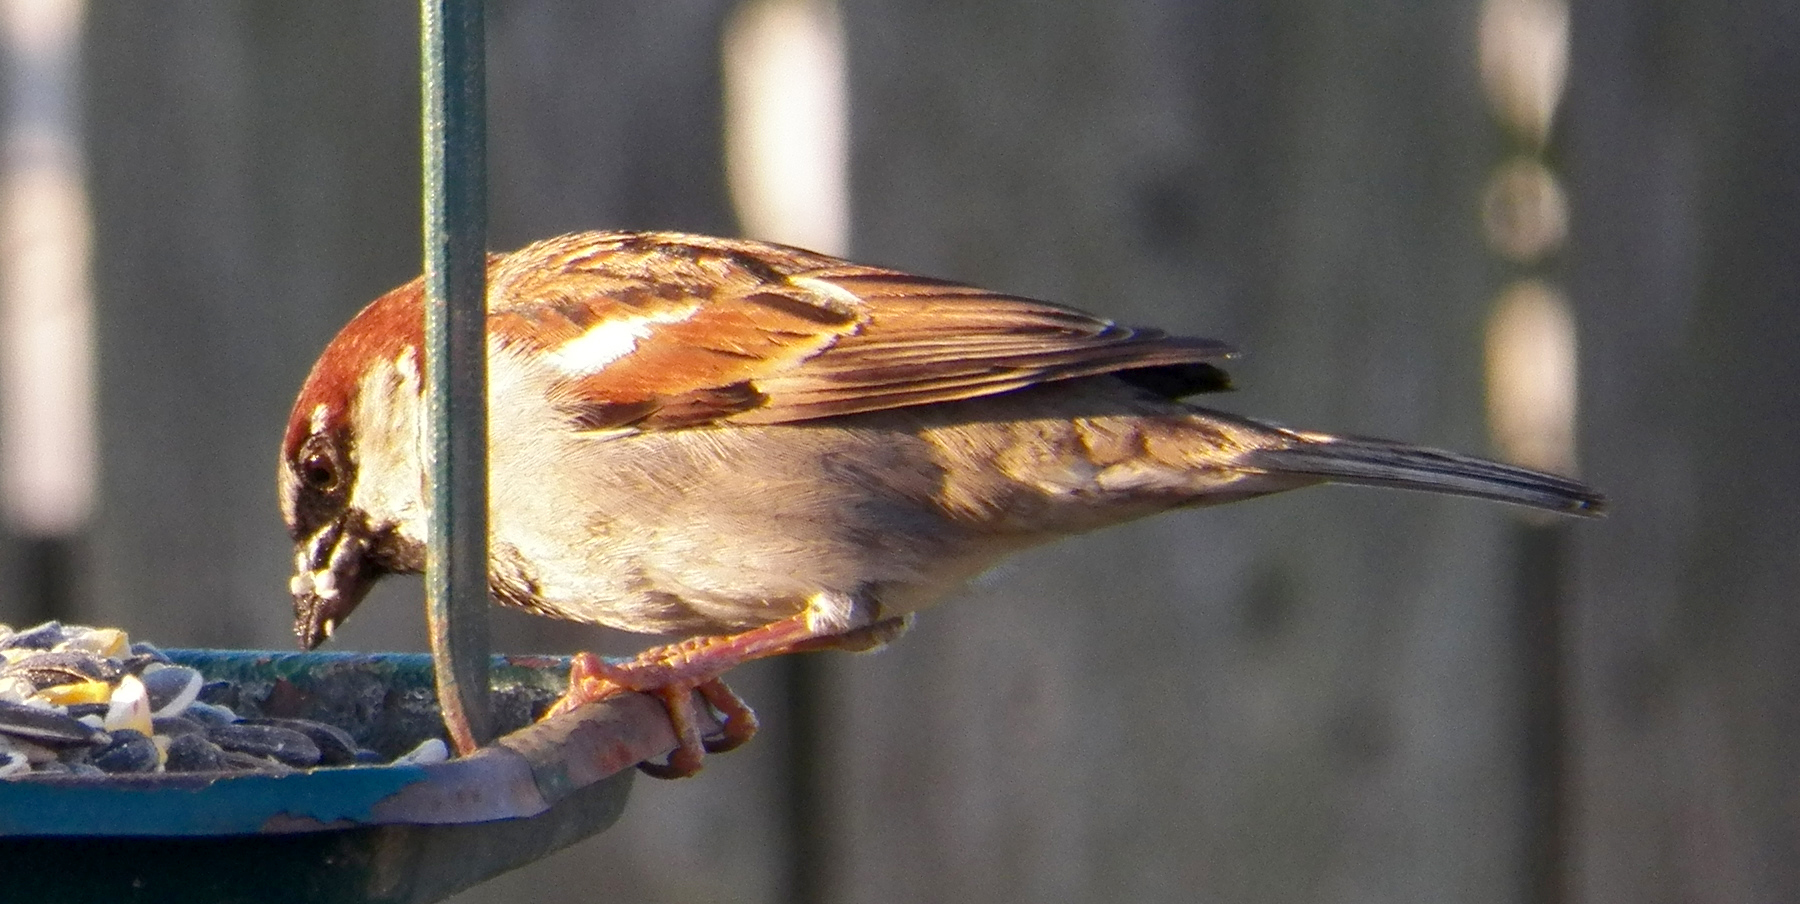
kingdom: Animalia
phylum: Chordata
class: Aves
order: Passeriformes
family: Passeridae
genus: Passer
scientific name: Passer domesticus
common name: House sparrow
